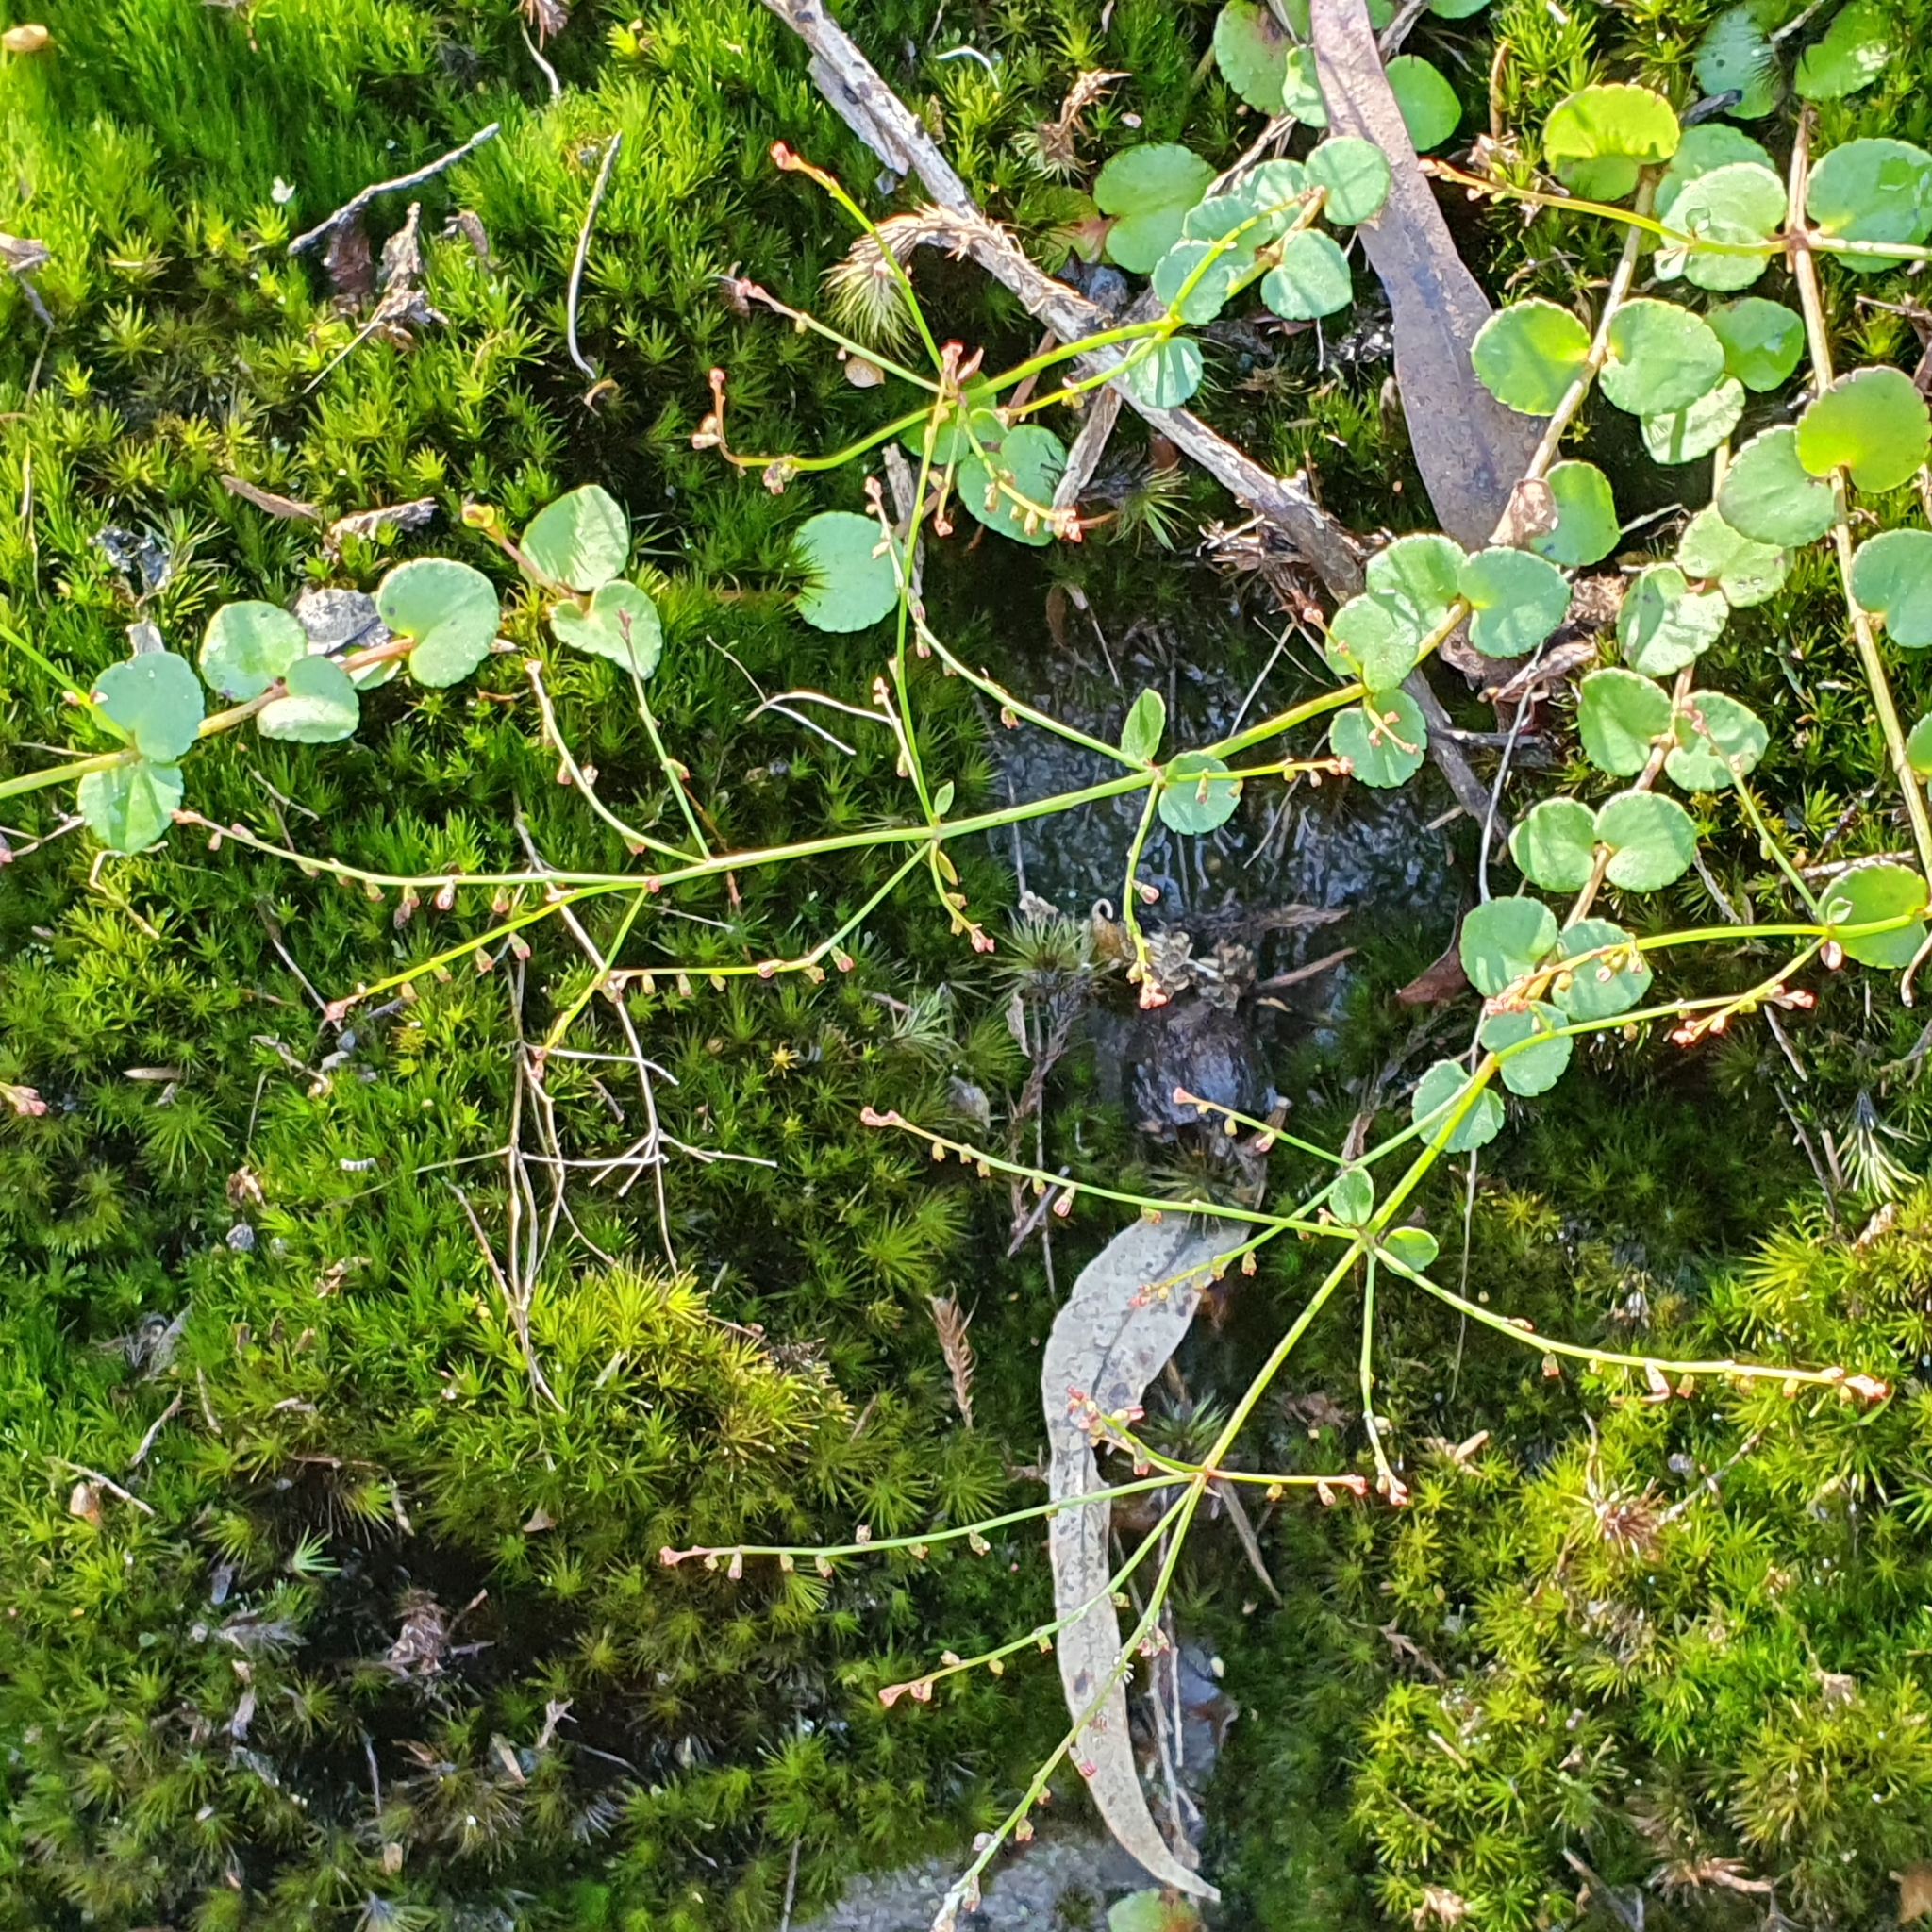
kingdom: Plantae
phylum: Tracheophyta
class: Magnoliopsida
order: Saxifragales
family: Haloragaceae
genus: Gonocarpus
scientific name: Gonocarpus micranthus
